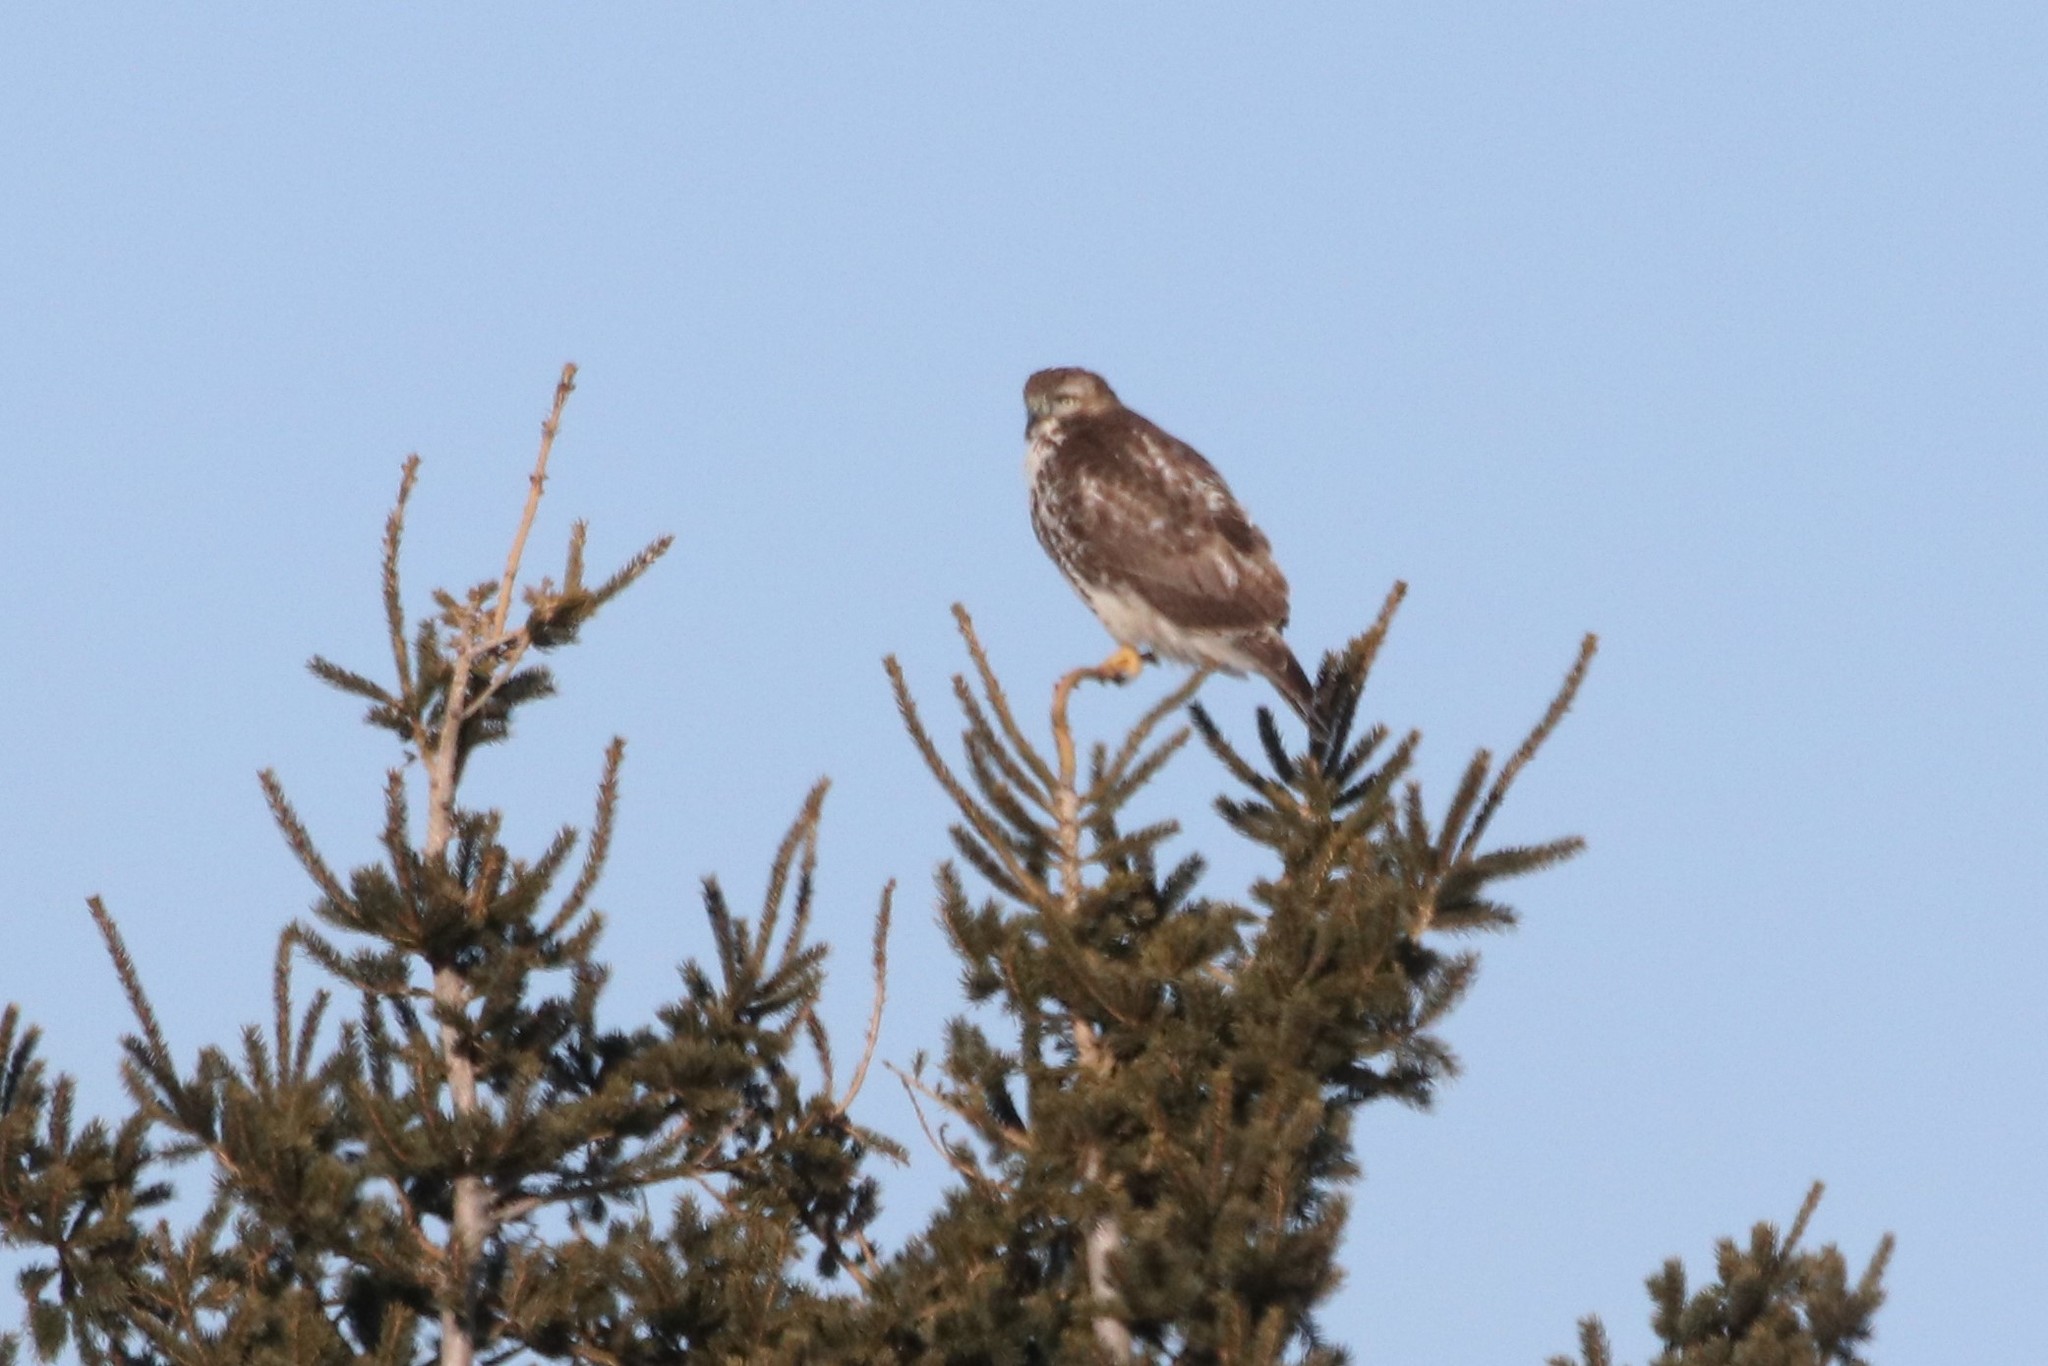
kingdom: Animalia
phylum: Chordata
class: Aves
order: Accipitriformes
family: Accipitridae
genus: Buteo
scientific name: Buteo jamaicensis
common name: Red-tailed hawk
